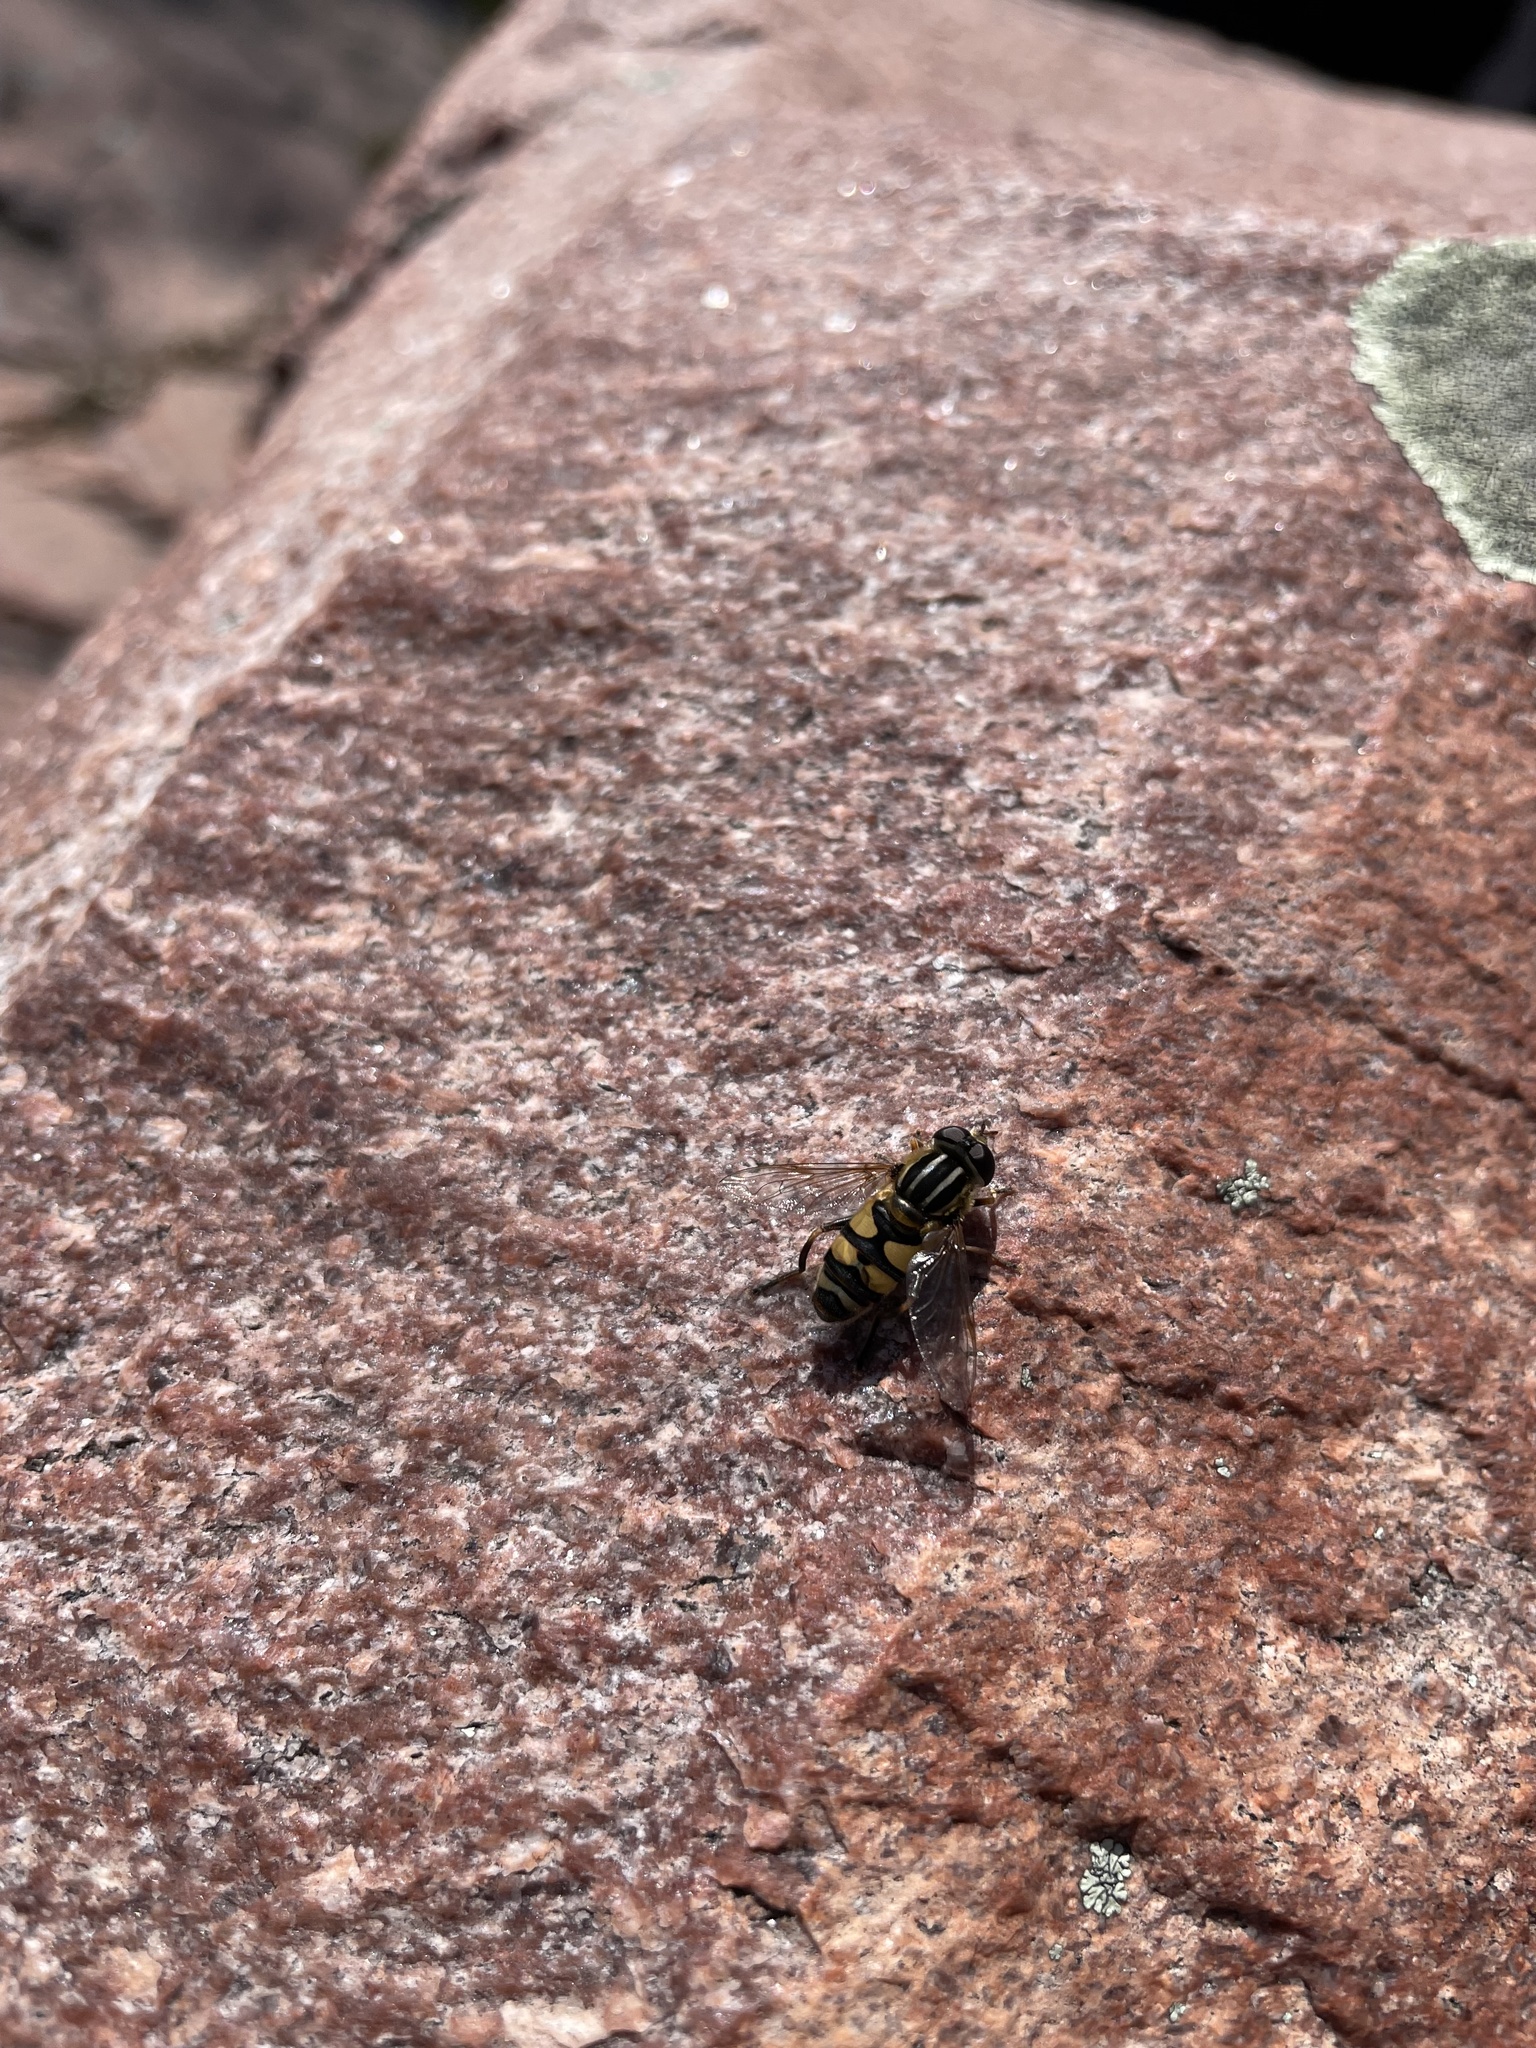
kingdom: Animalia
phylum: Arthropoda
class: Insecta
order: Diptera
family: Syrphidae
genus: Helophilus
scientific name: Helophilus fasciatus
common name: Narrow-headed marsh fly
